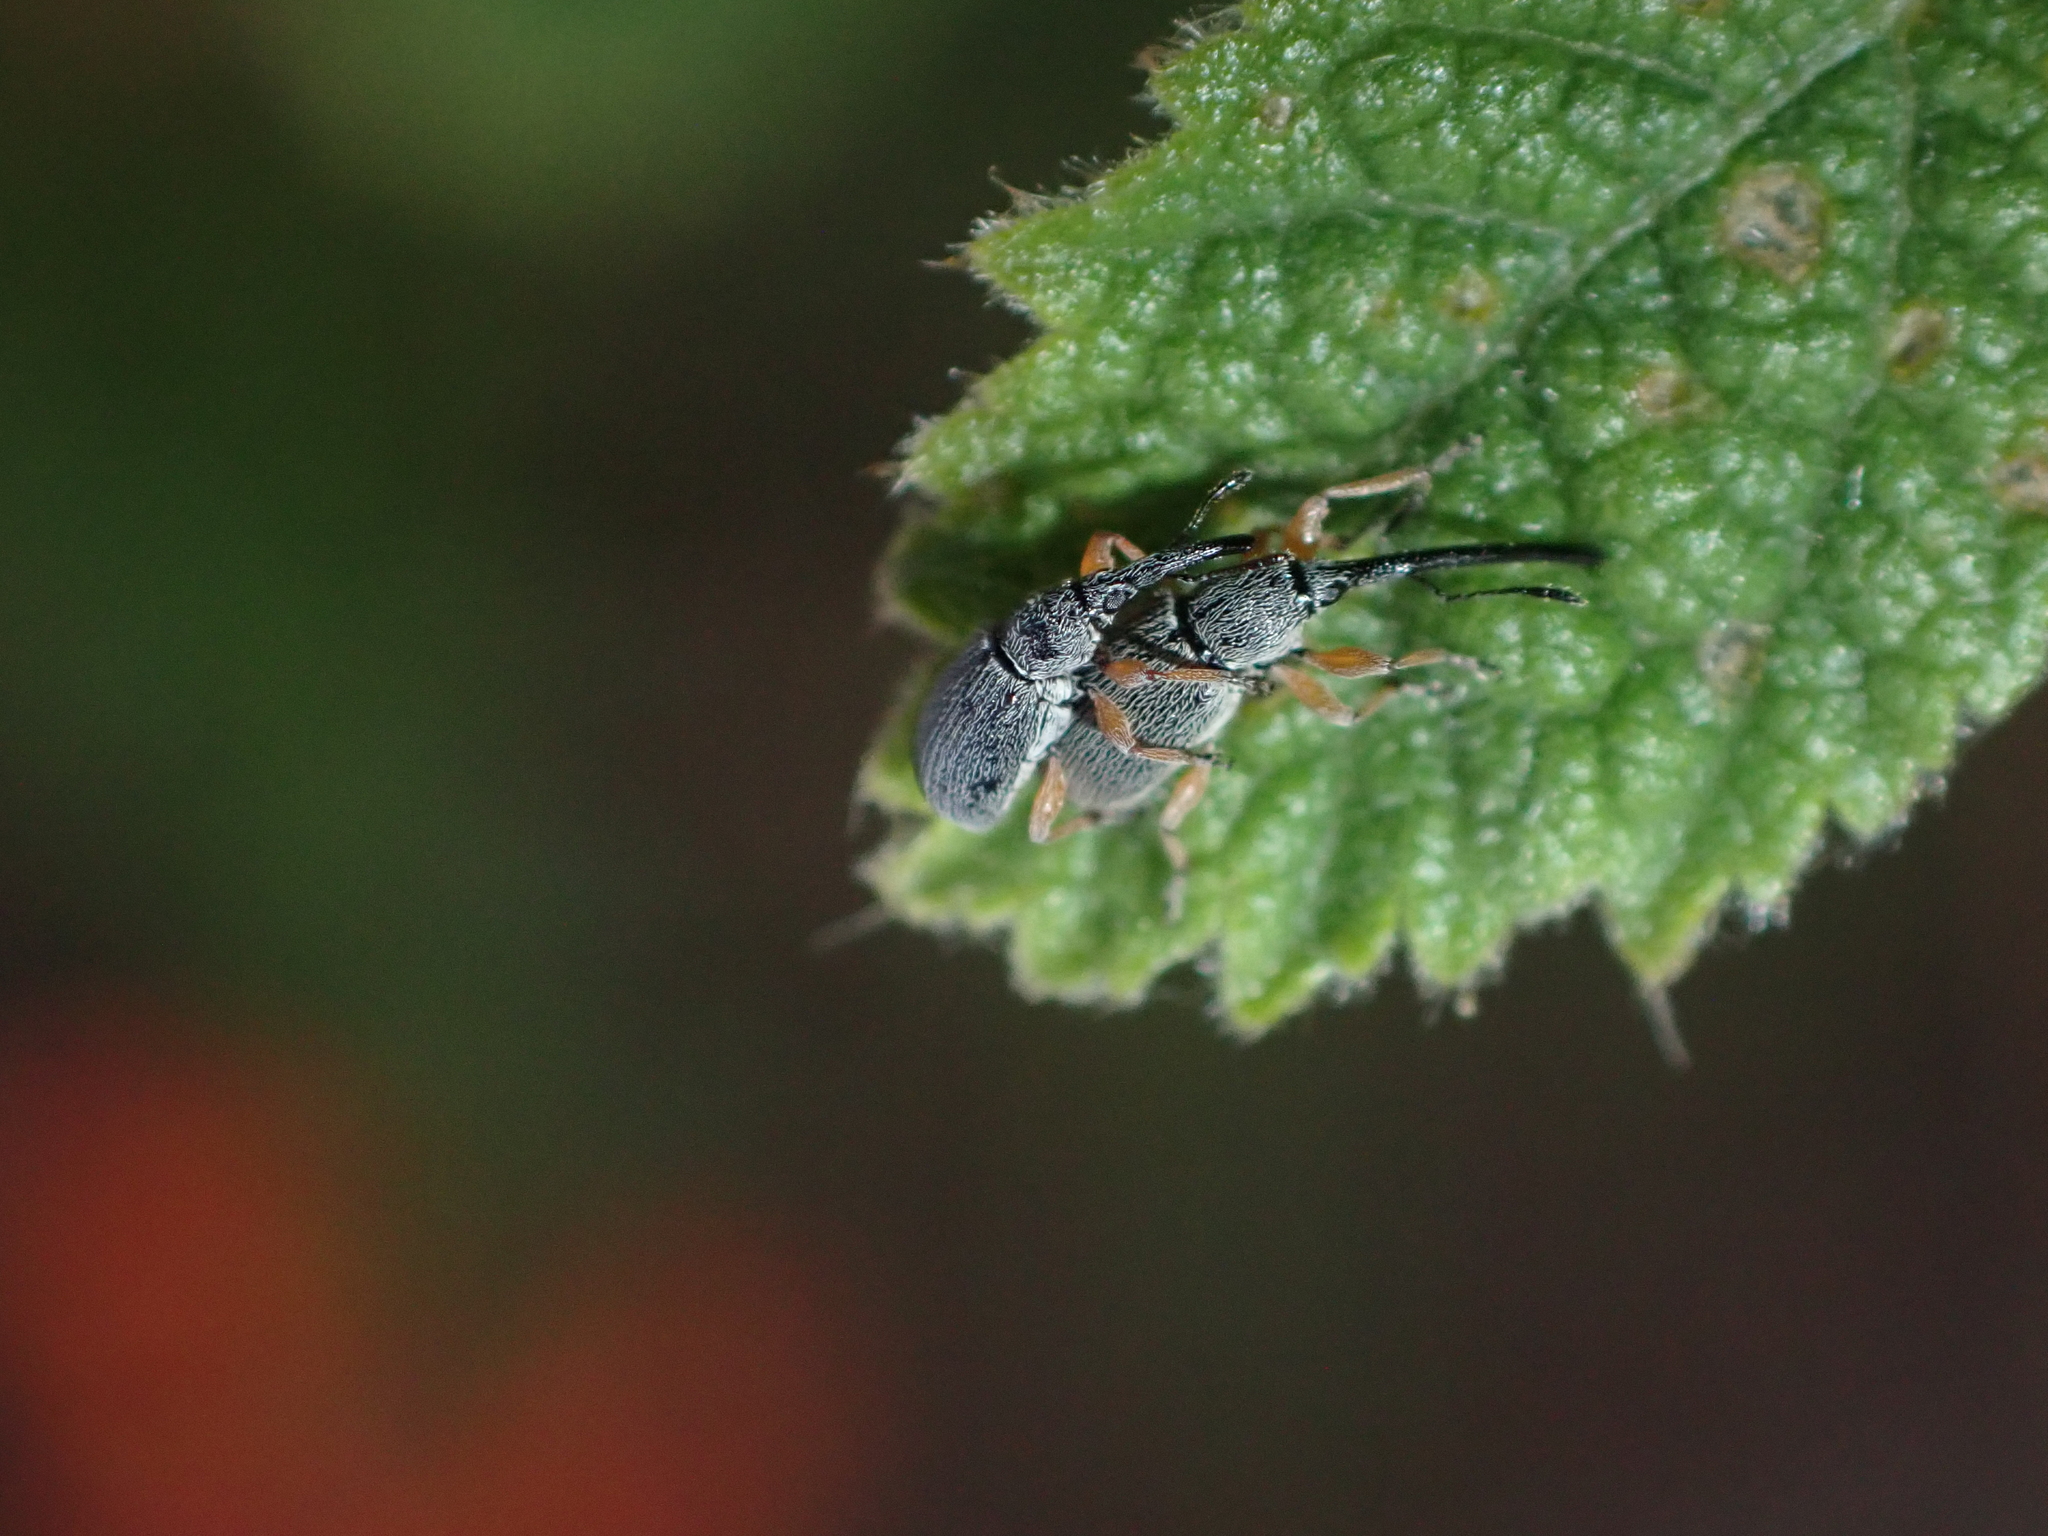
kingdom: Animalia
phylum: Arthropoda
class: Insecta
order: Coleoptera
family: Brentidae
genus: Rhopalapion
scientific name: Rhopalapion longirostre
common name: Hollyhock weevil
